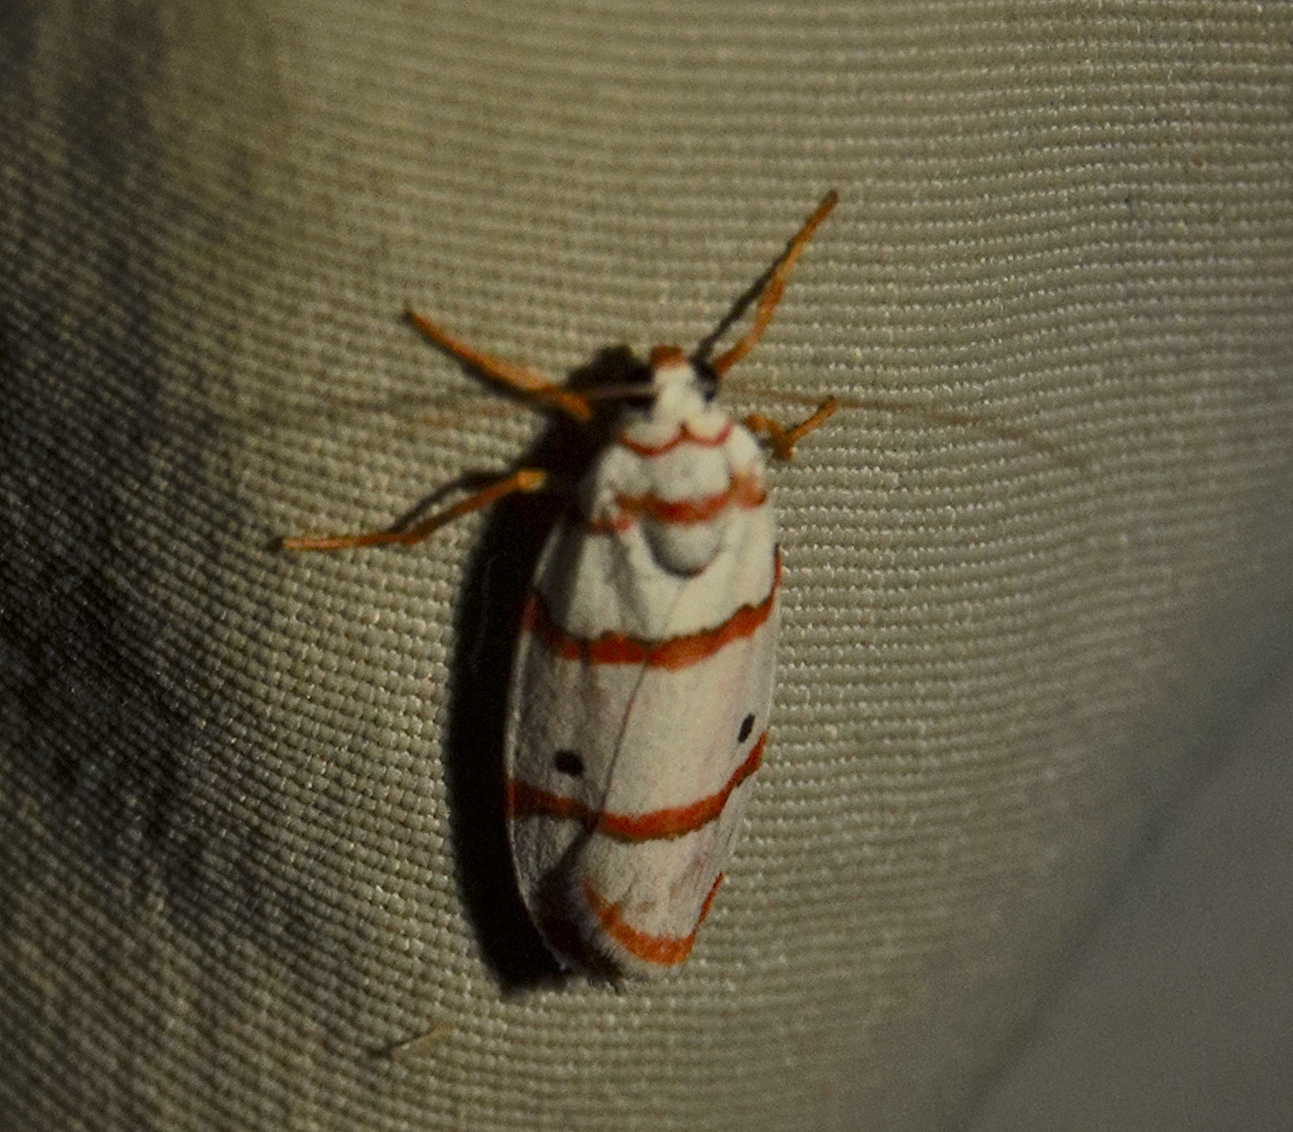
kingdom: Animalia
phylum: Arthropoda
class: Insecta
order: Lepidoptera
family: Erebidae
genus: Cyana
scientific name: Cyana peregrina
